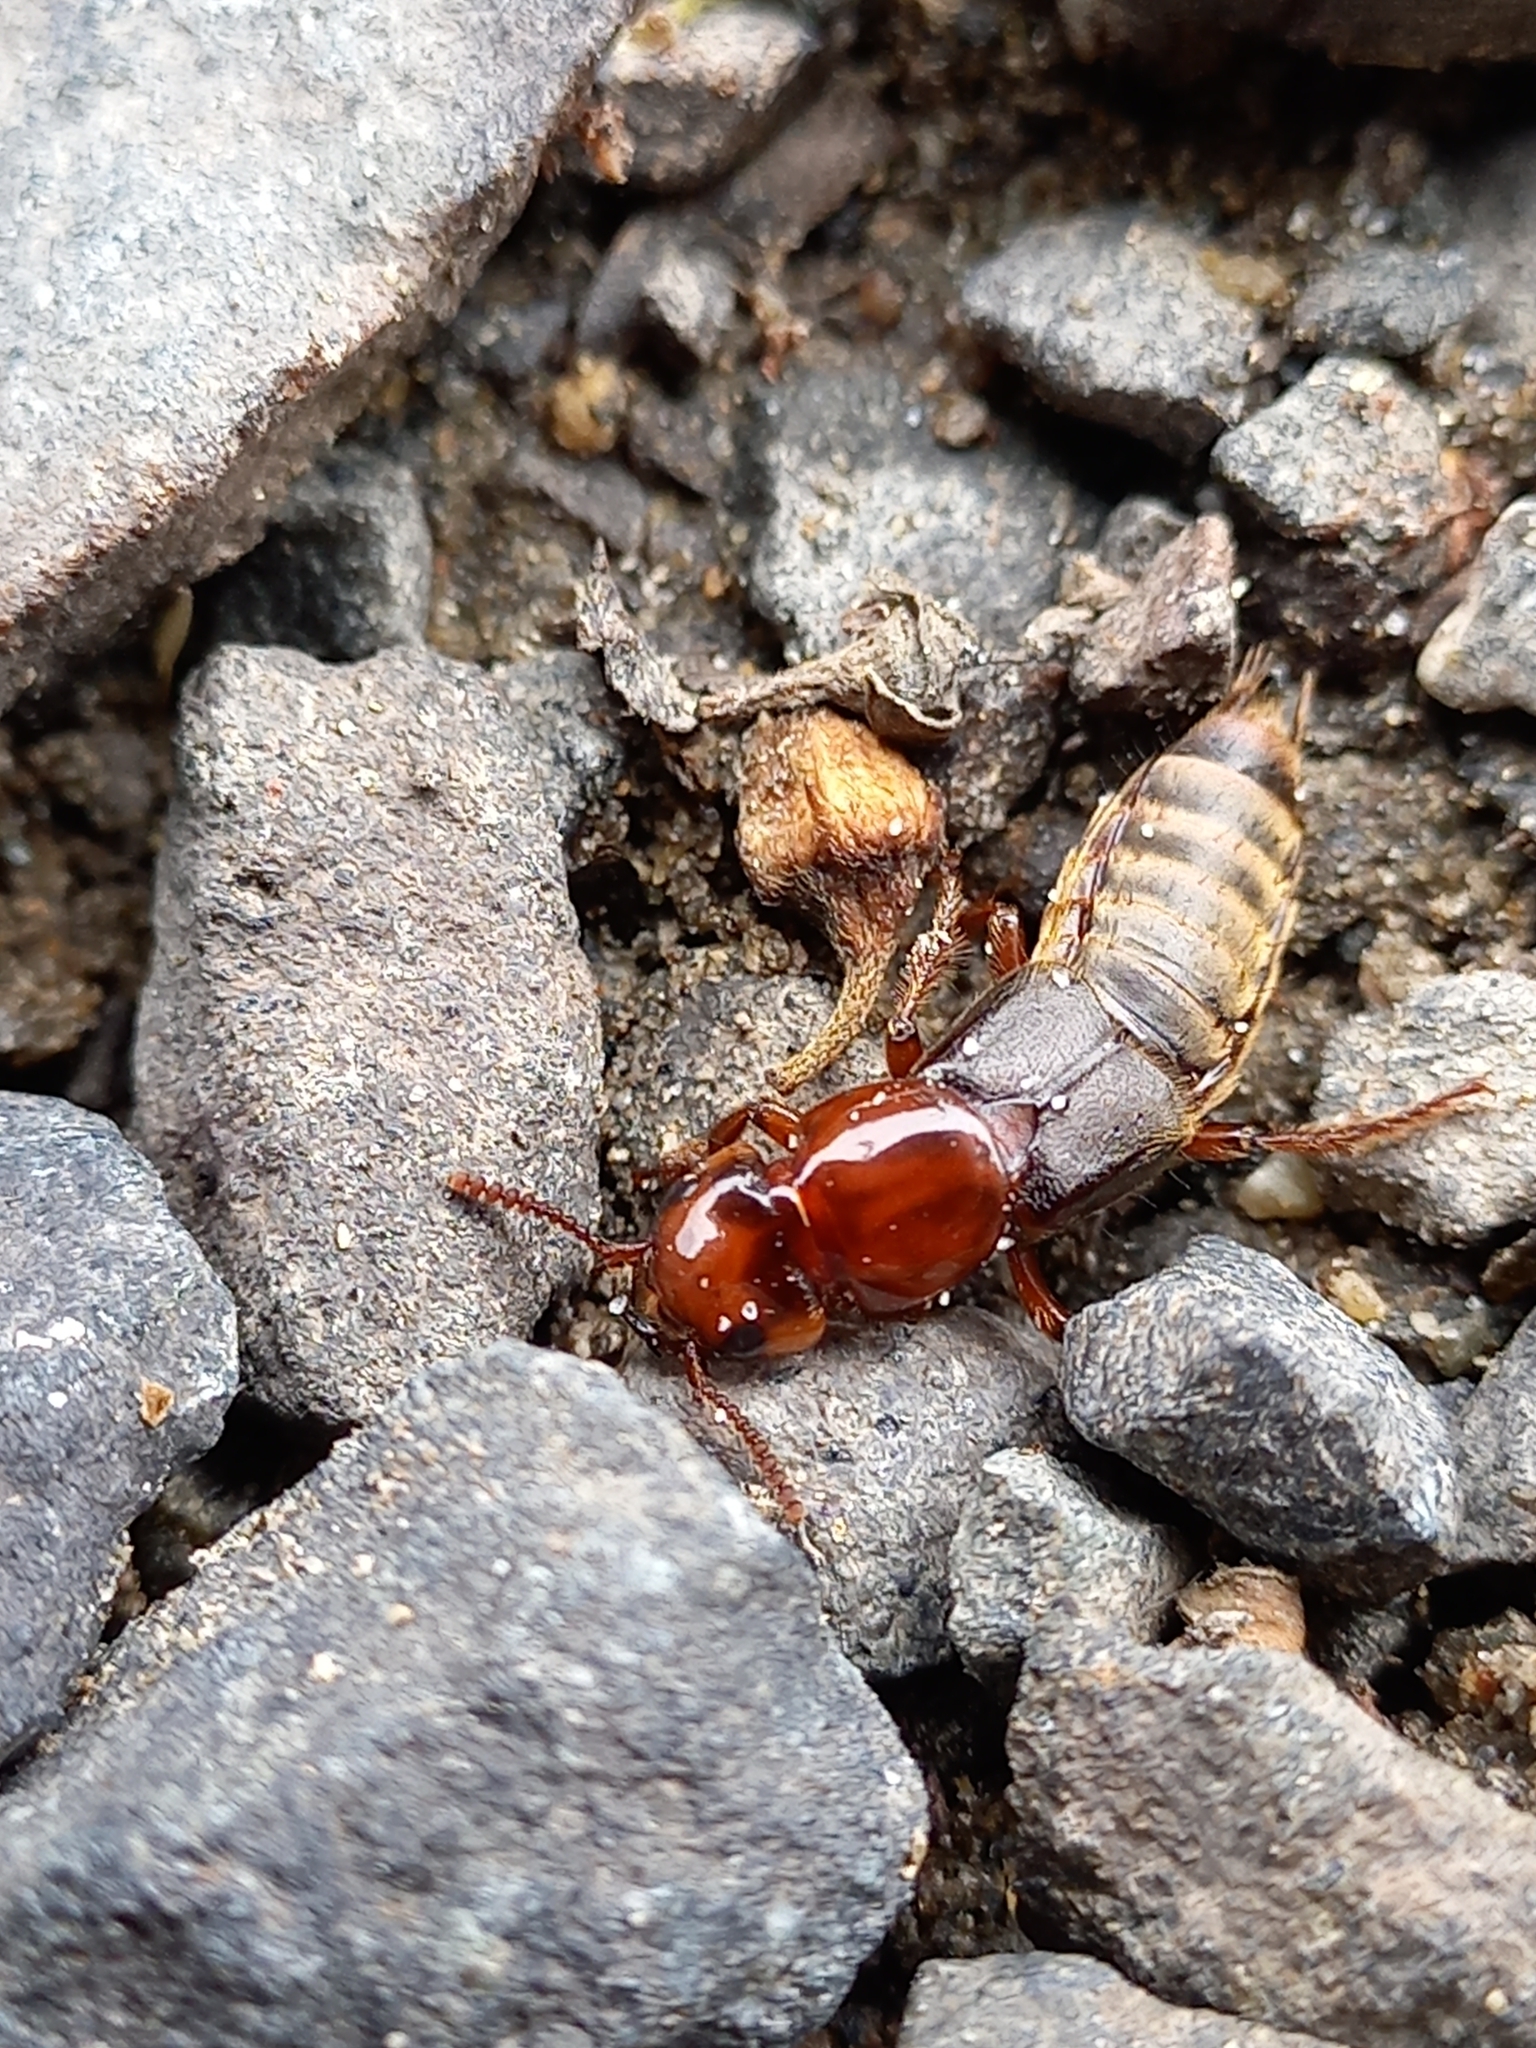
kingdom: Animalia
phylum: Arthropoda
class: Insecta
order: Coleoptera
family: Staphylinidae
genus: Creophilus
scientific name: Creophilus huttoni
